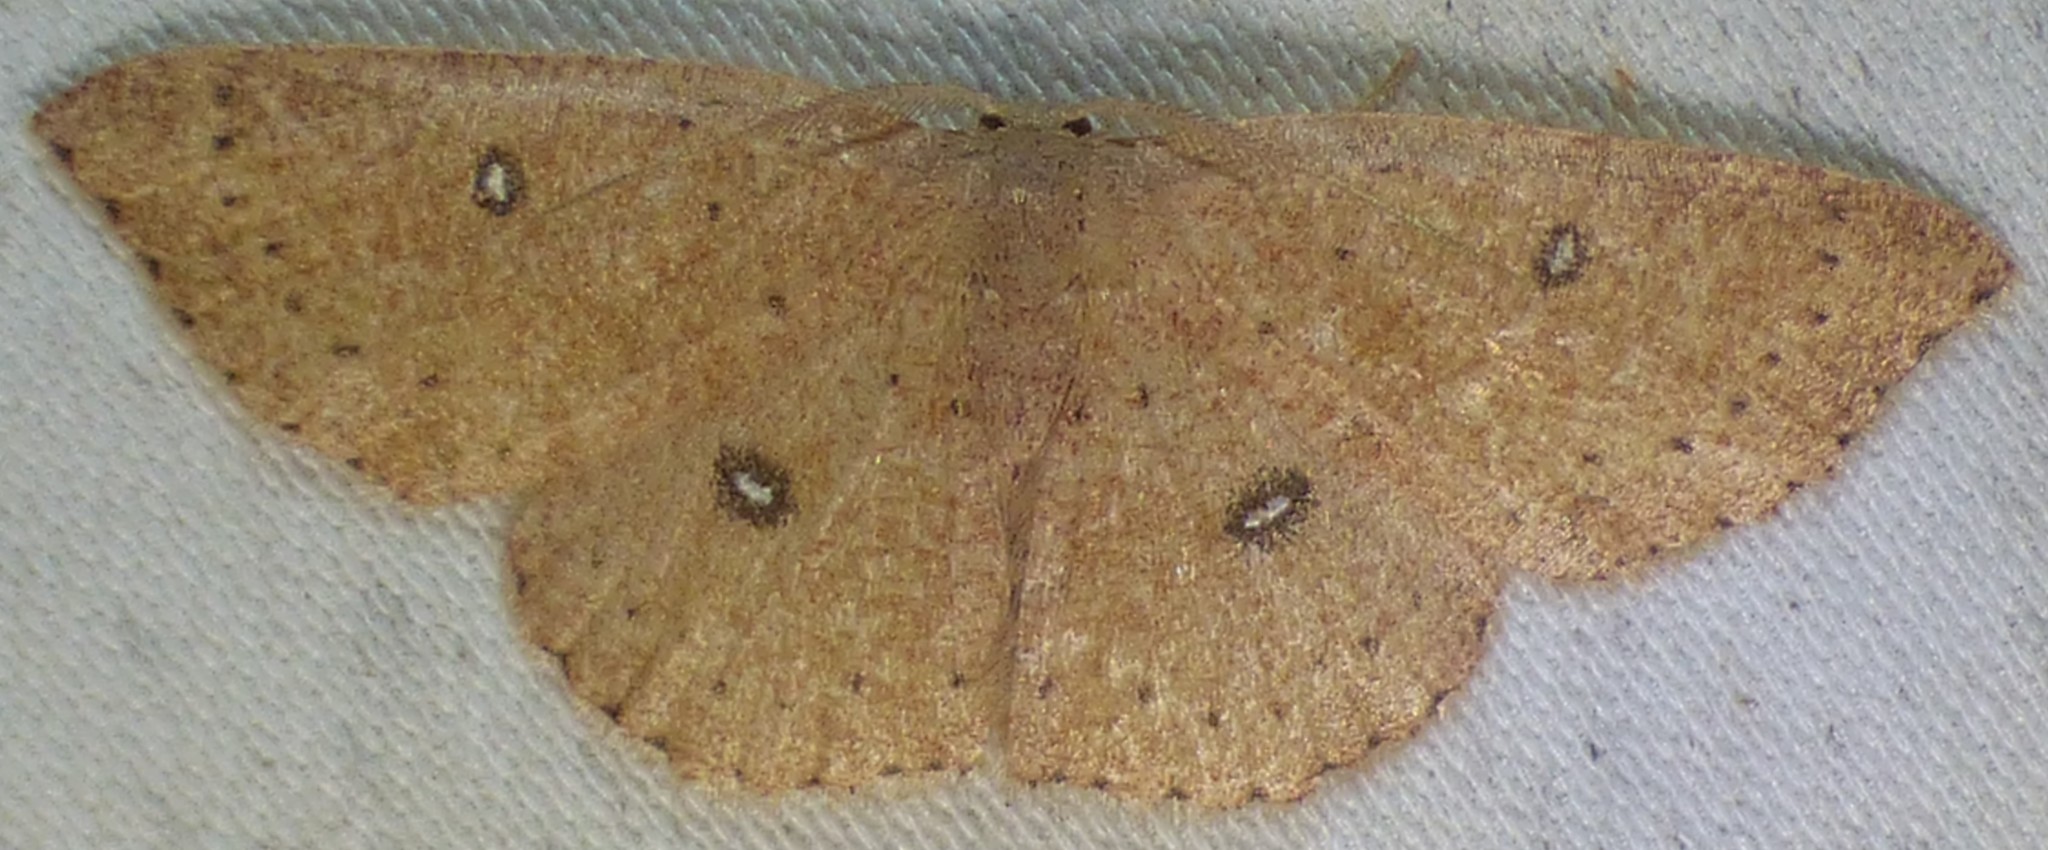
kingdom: Animalia
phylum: Arthropoda
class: Insecta
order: Lepidoptera
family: Geometridae
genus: Cyclophora
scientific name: Cyclophora packardi
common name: Packard's wave
